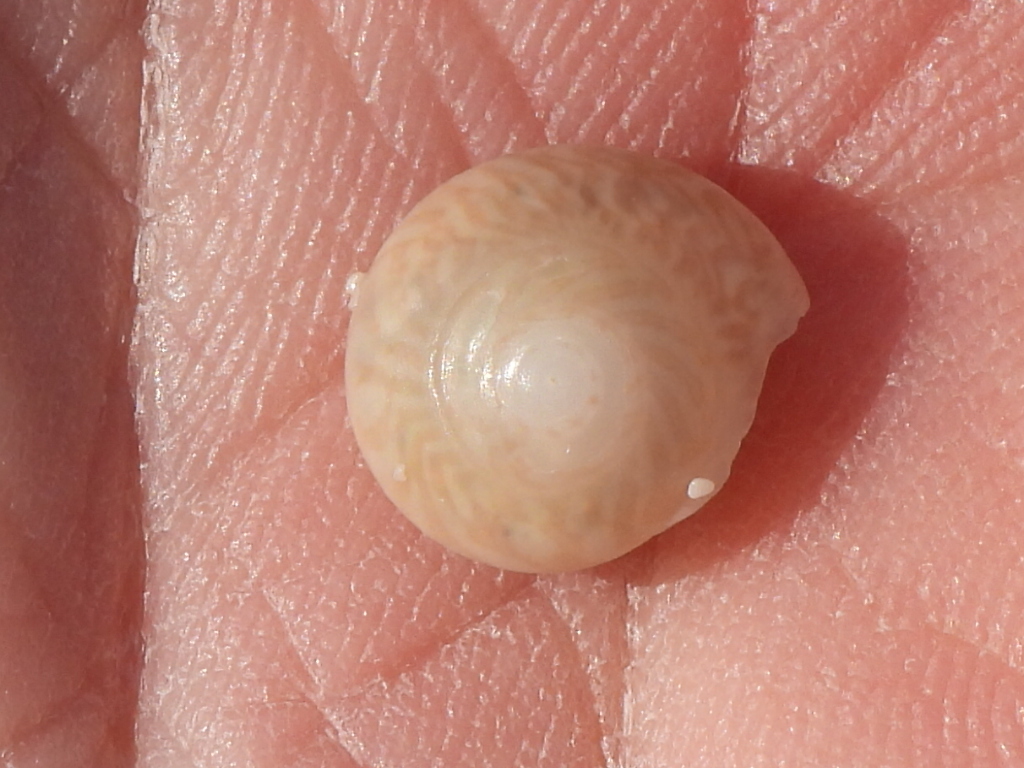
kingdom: Animalia
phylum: Mollusca
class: Gastropoda
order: Trochida
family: Trochidae
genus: Umbonium
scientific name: Umbonium vestiarium
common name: Button tops
